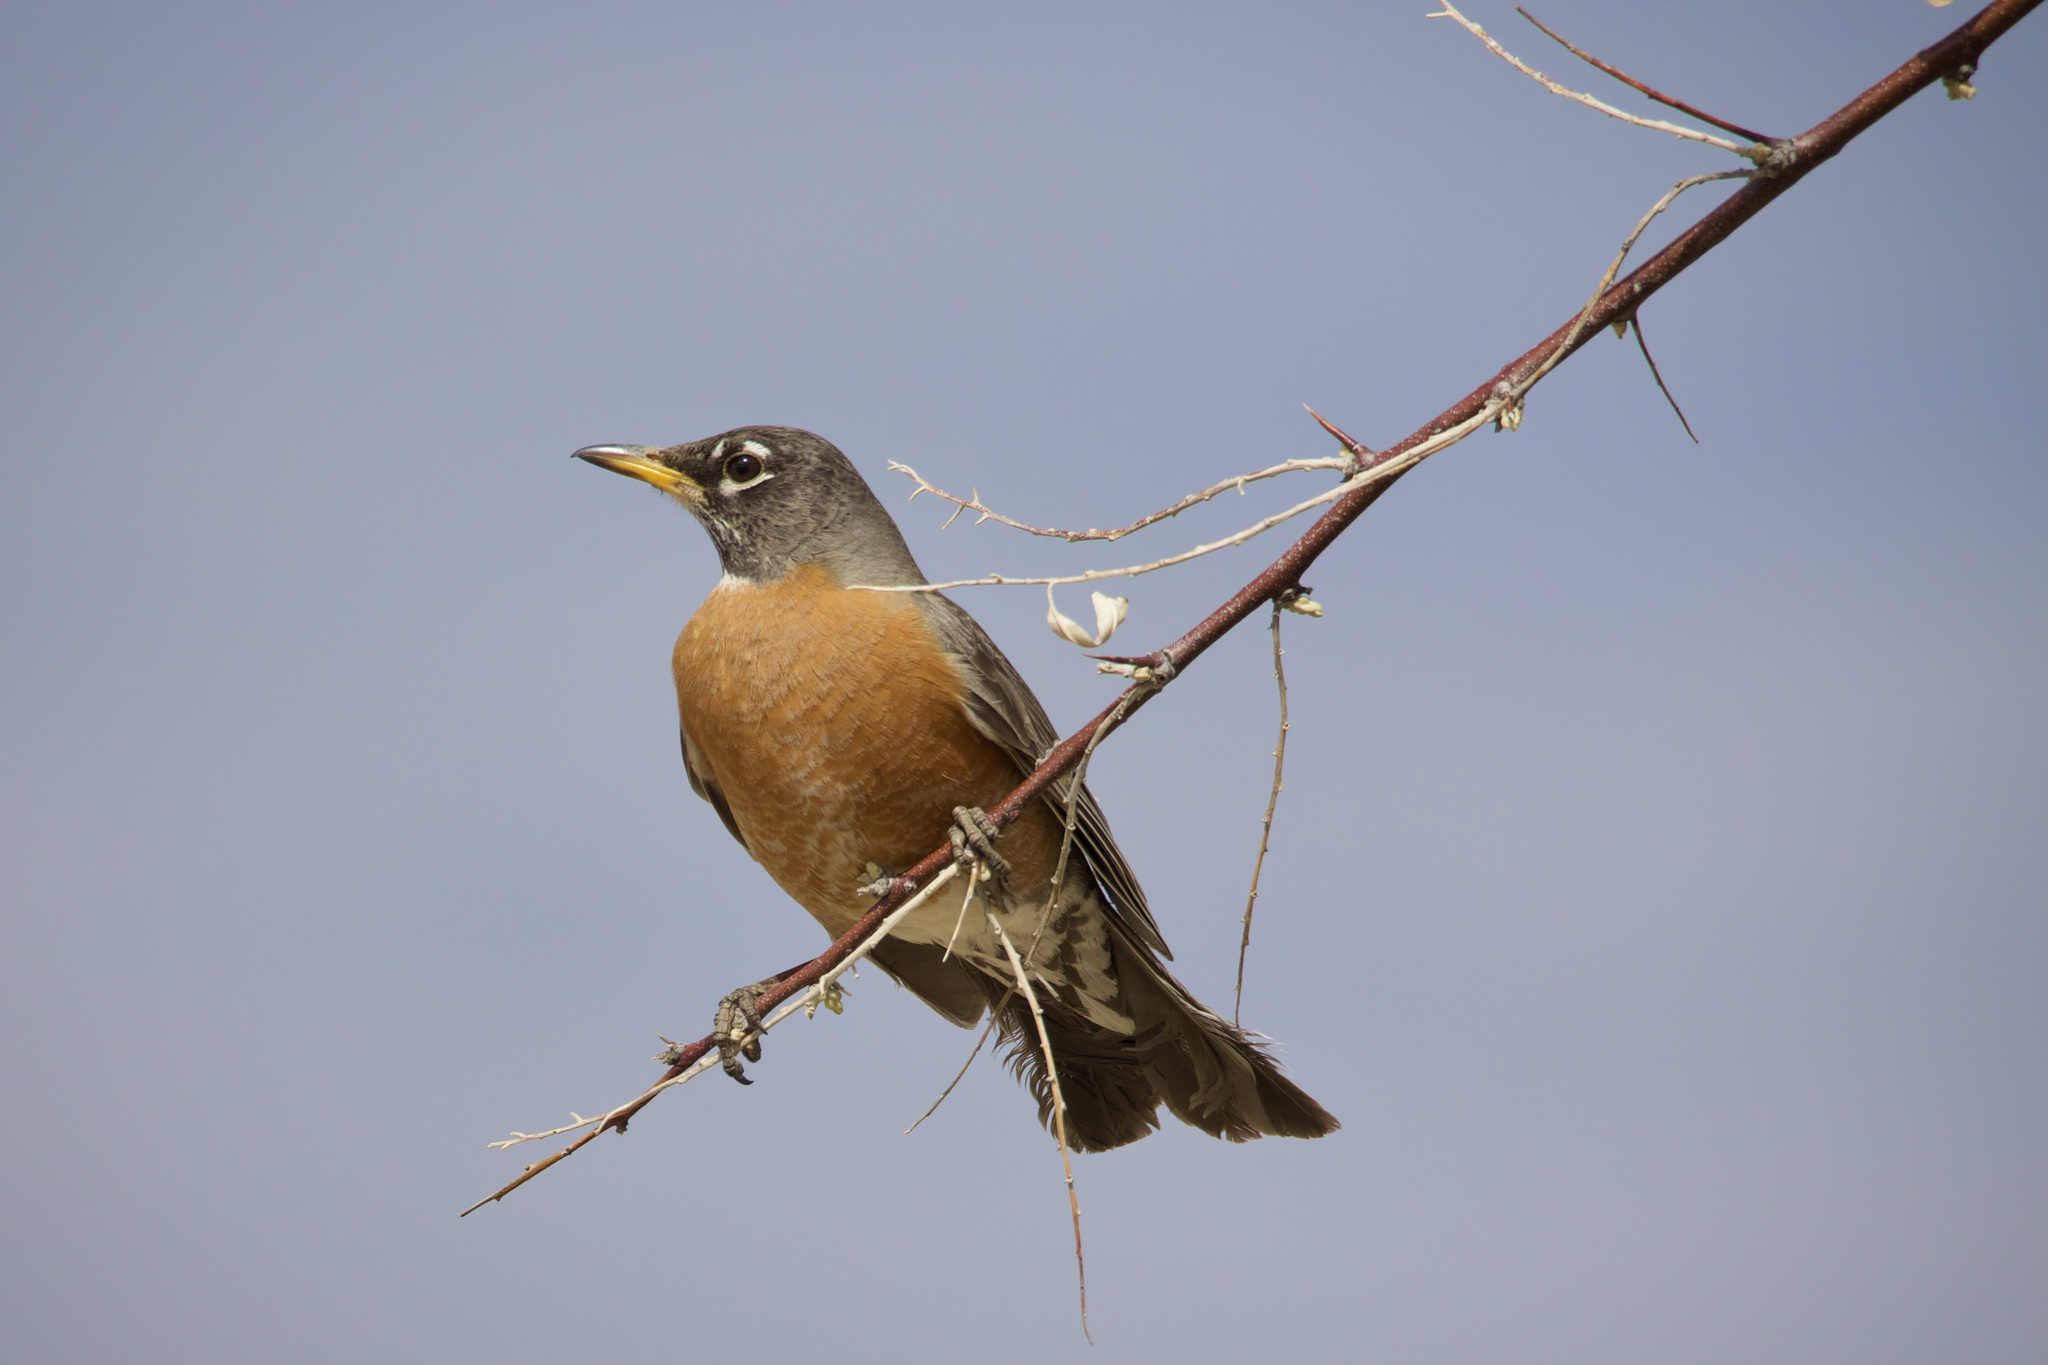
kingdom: Animalia
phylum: Chordata
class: Aves
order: Passeriformes
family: Turdidae
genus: Turdus
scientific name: Turdus migratorius
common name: American robin
